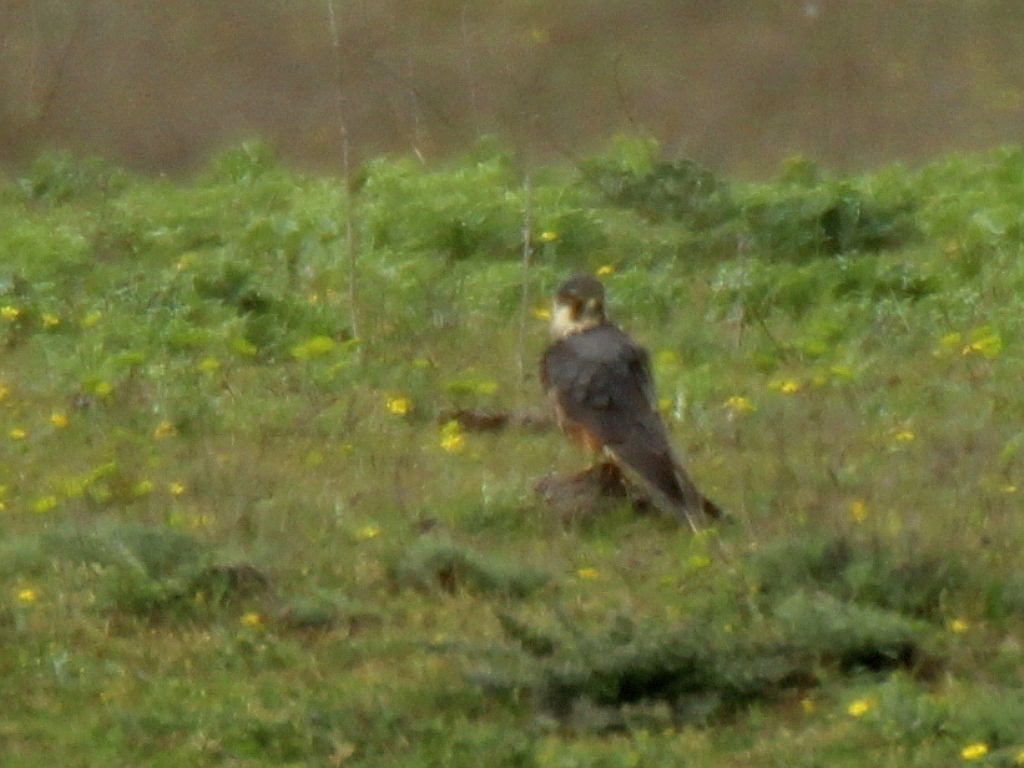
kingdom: Animalia
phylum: Chordata
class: Aves
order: Falconiformes
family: Falconidae
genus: Falco
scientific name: Falco subbuteo
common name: Eurasian hobby
